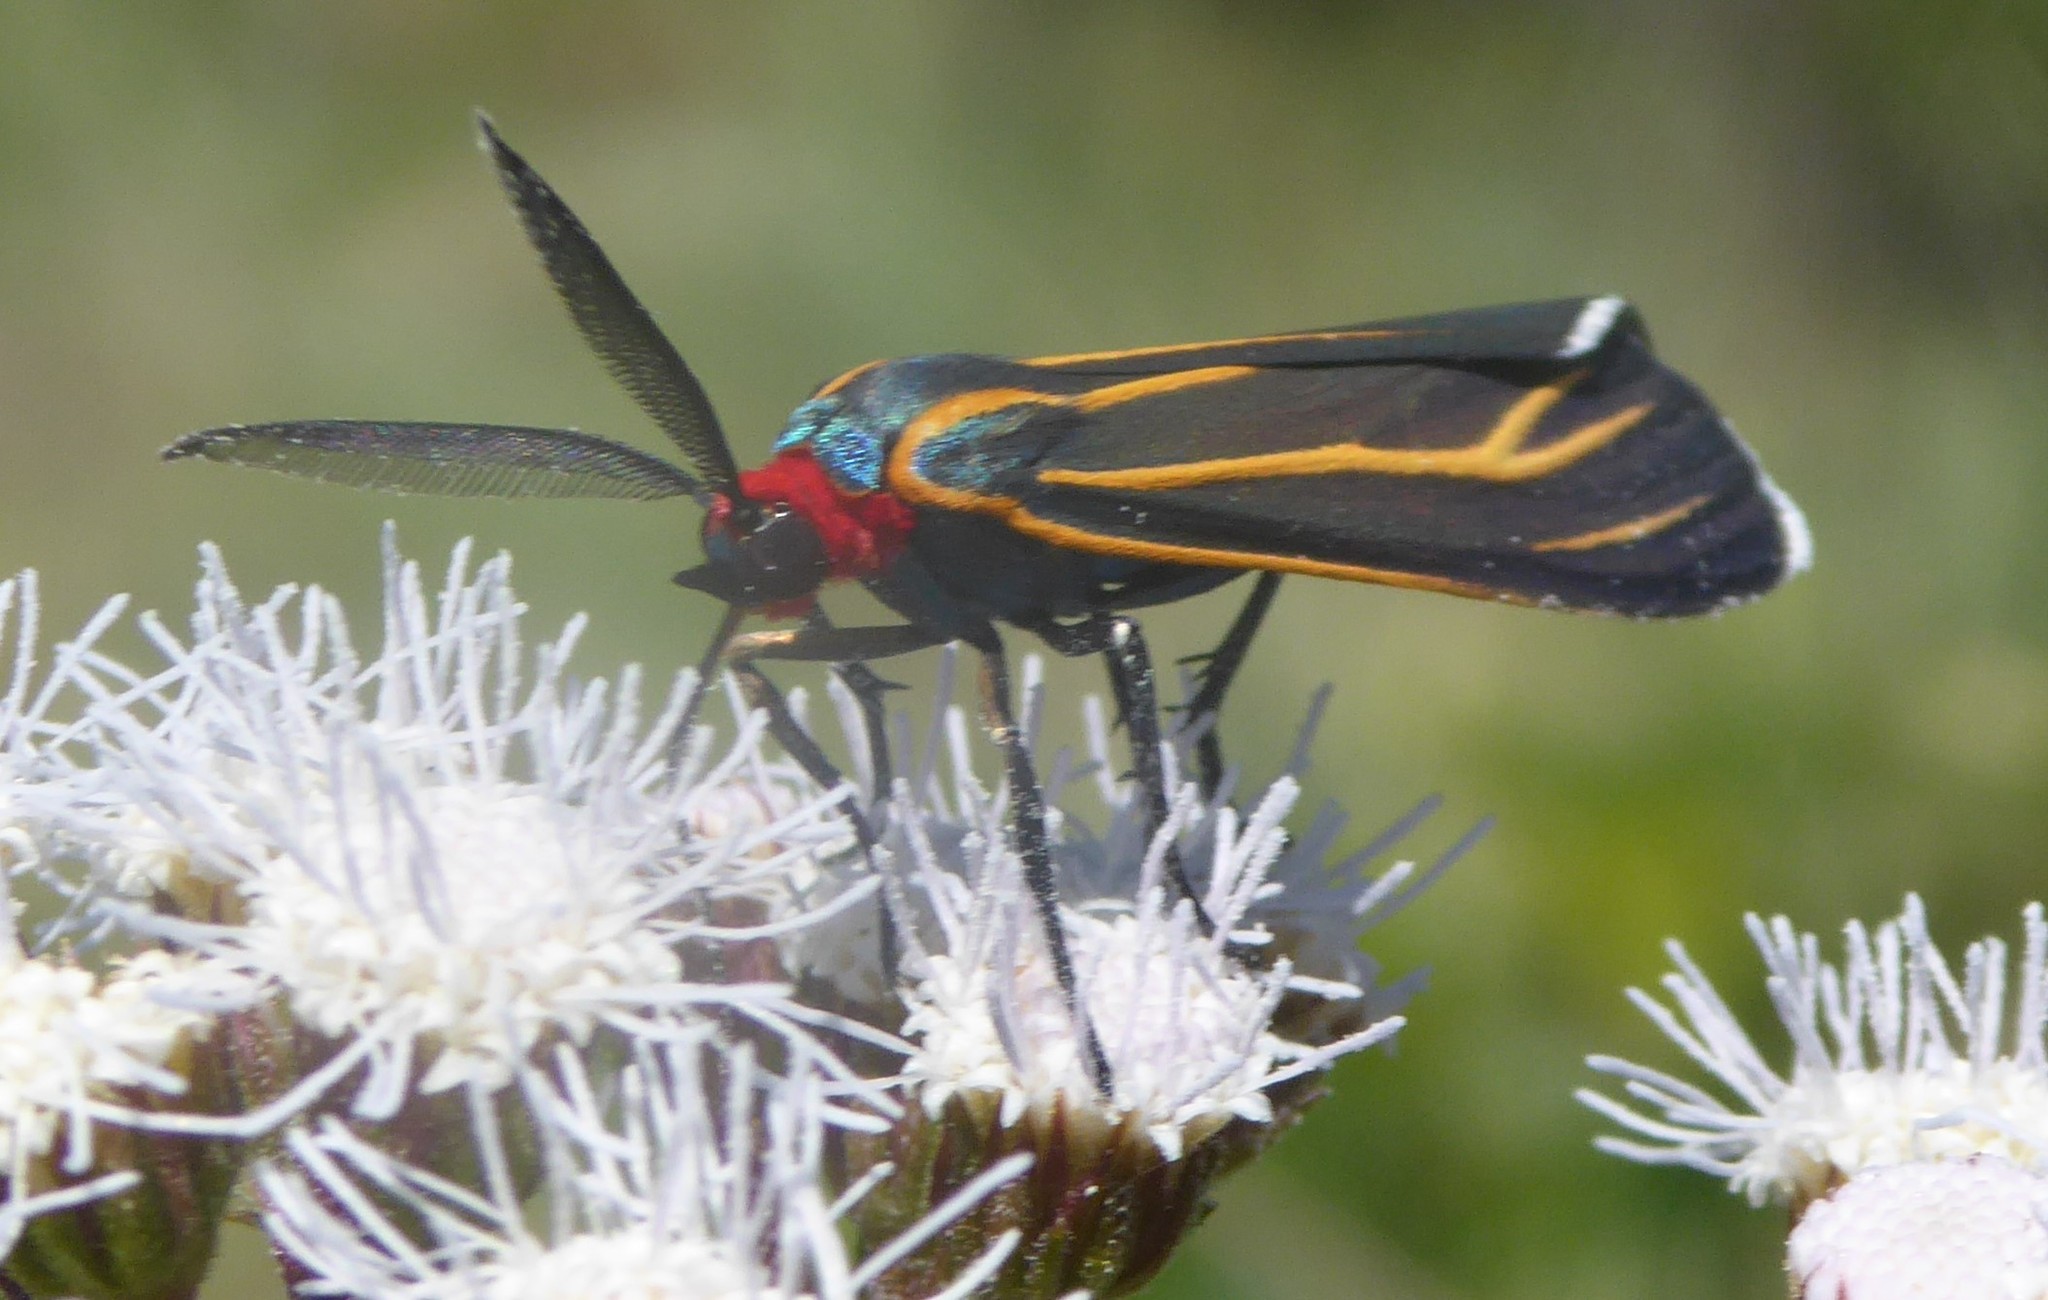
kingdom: Animalia
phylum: Arthropoda
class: Insecta
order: Lepidoptera
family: Erebidae
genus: Ctenucha
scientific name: Ctenucha venosa
